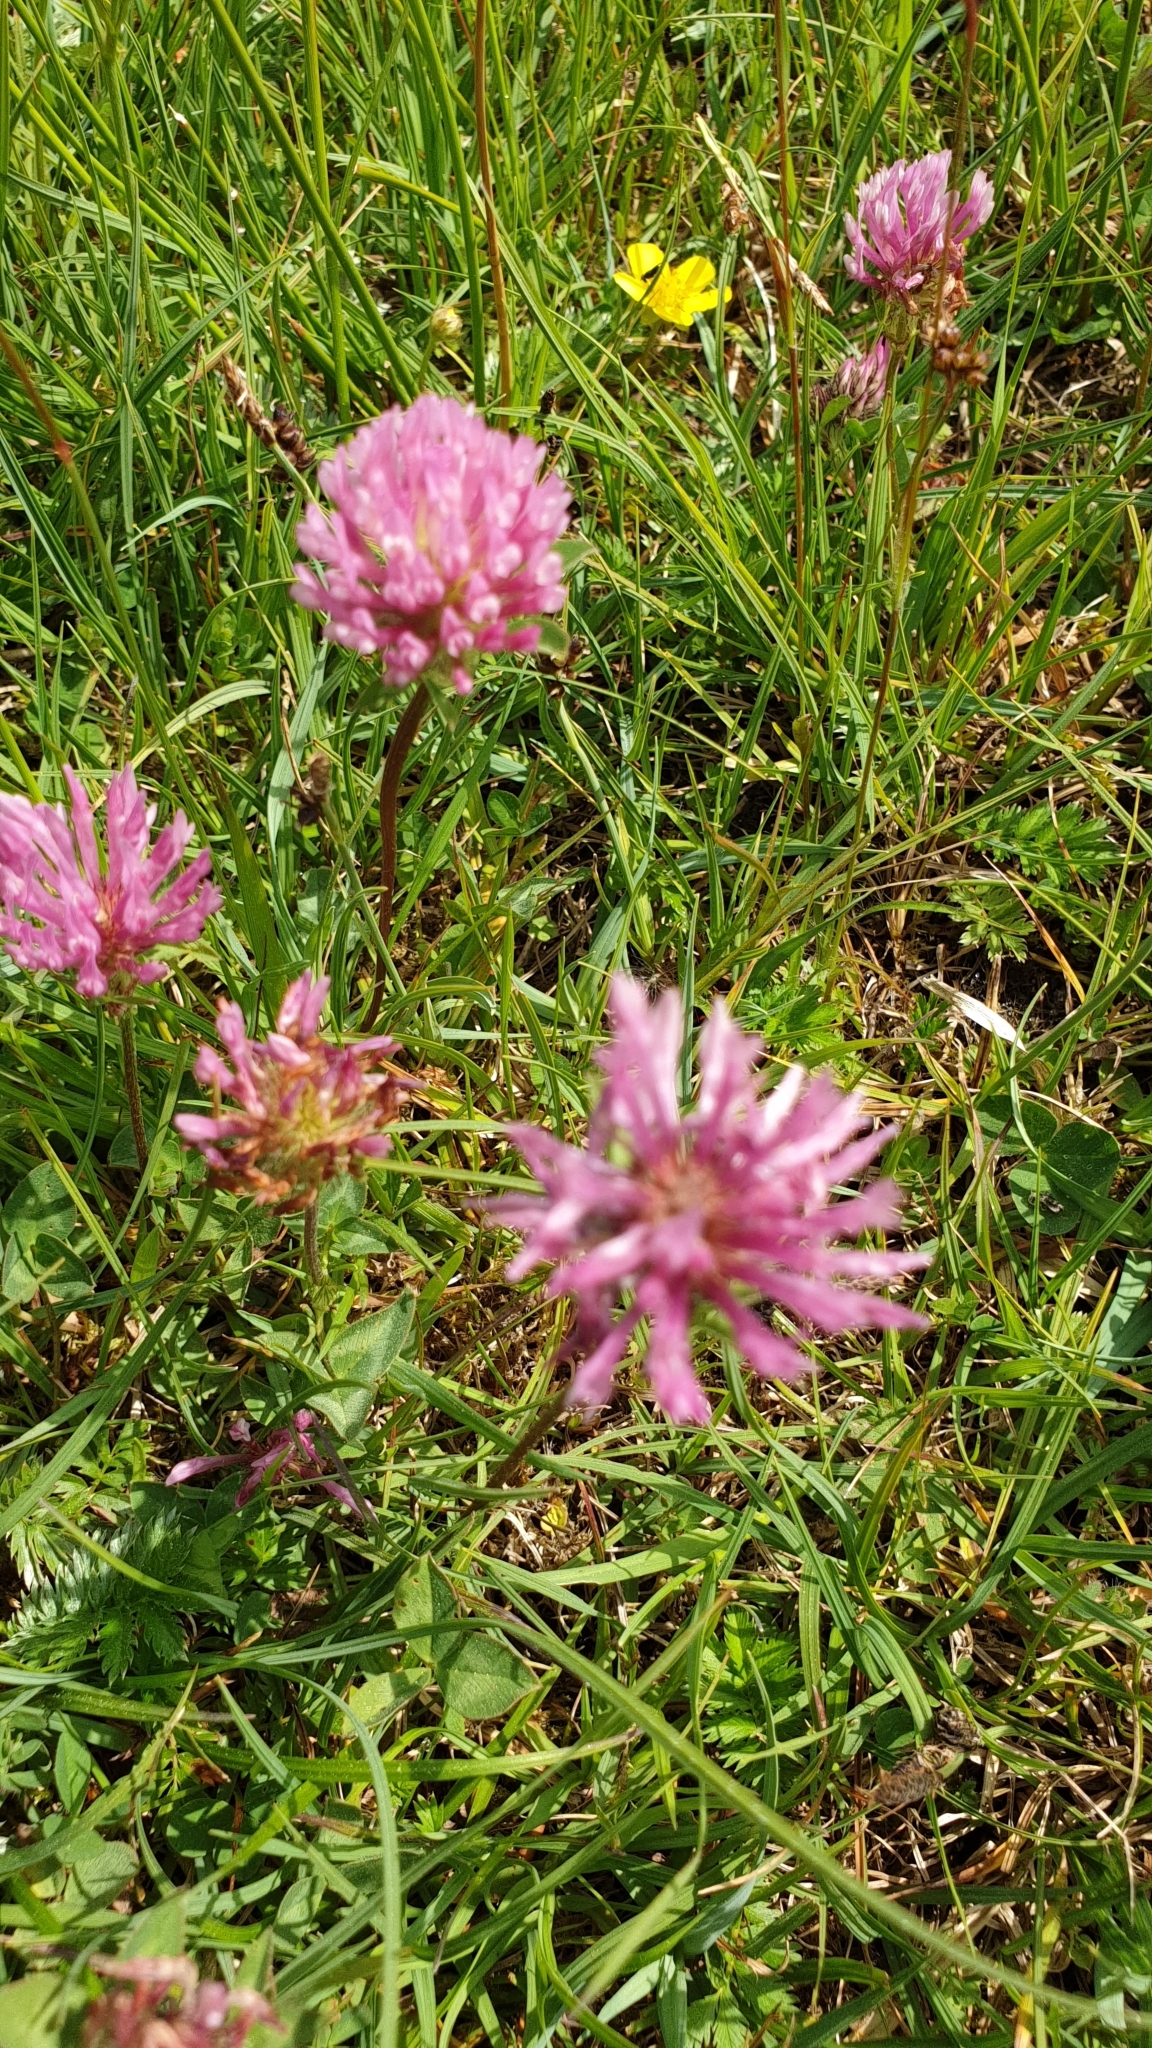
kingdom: Plantae
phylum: Tracheophyta
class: Magnoliopsida
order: Fabales
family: Fabaceae
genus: Trifolium
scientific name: Trifolium pratense
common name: Red clover
